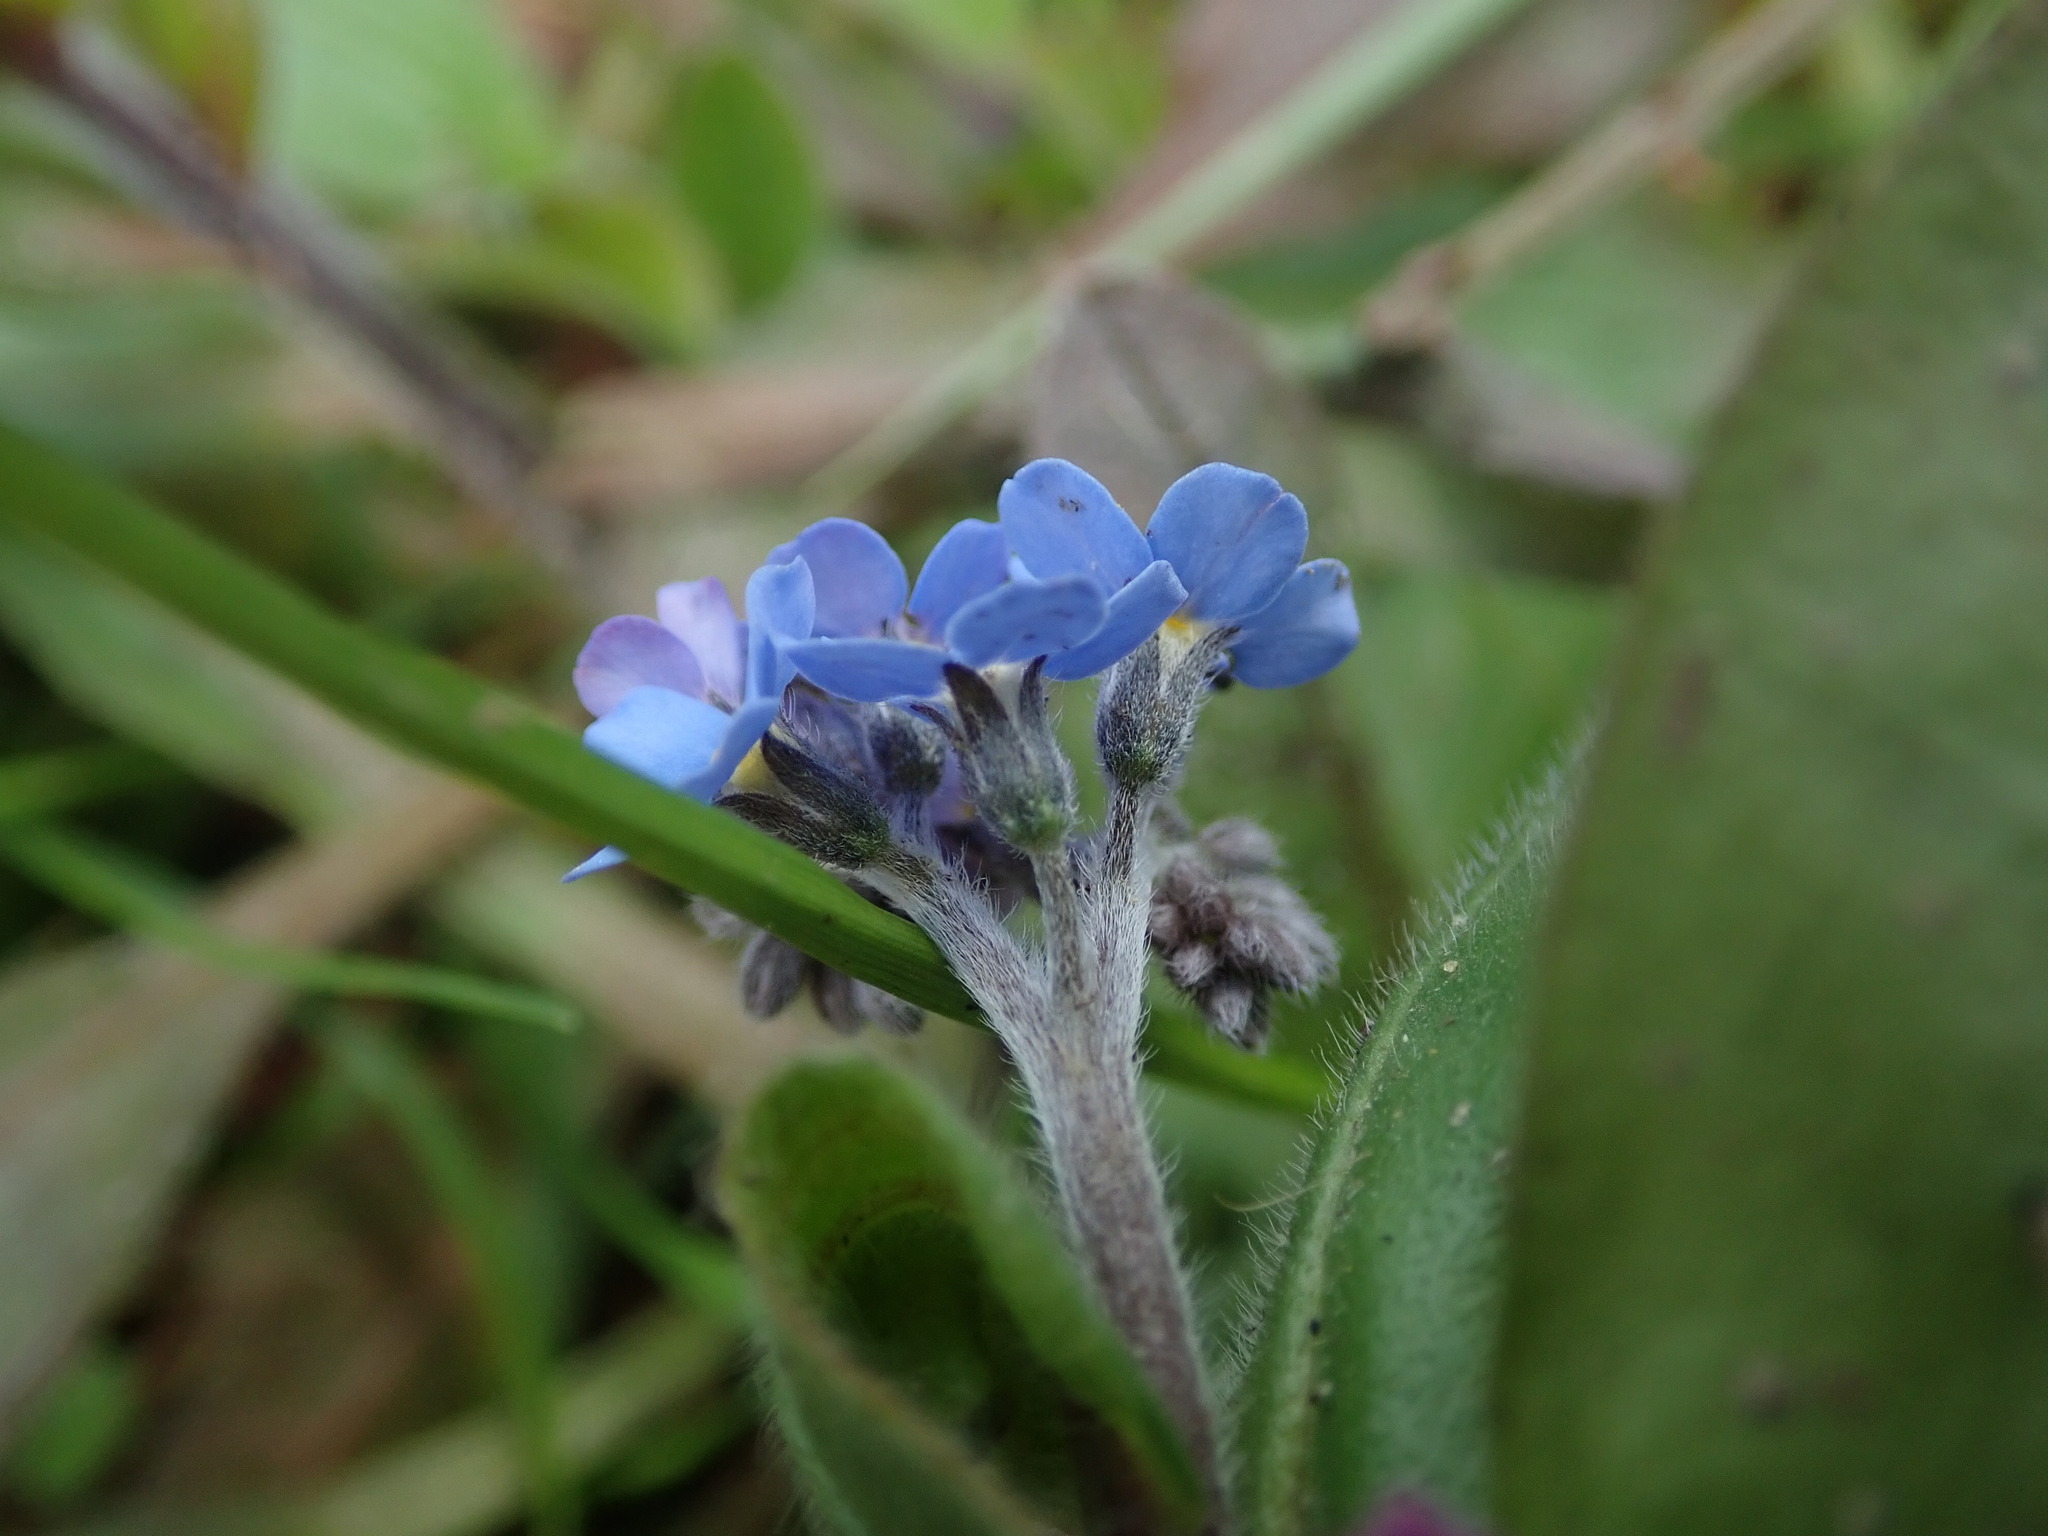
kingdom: Plantae
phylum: Tracheophyta
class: Magnoliopsida
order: Boraginales
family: Boraginaceae
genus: Myosotis
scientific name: Myosotis sylvatica
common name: Wood forget-me-not
